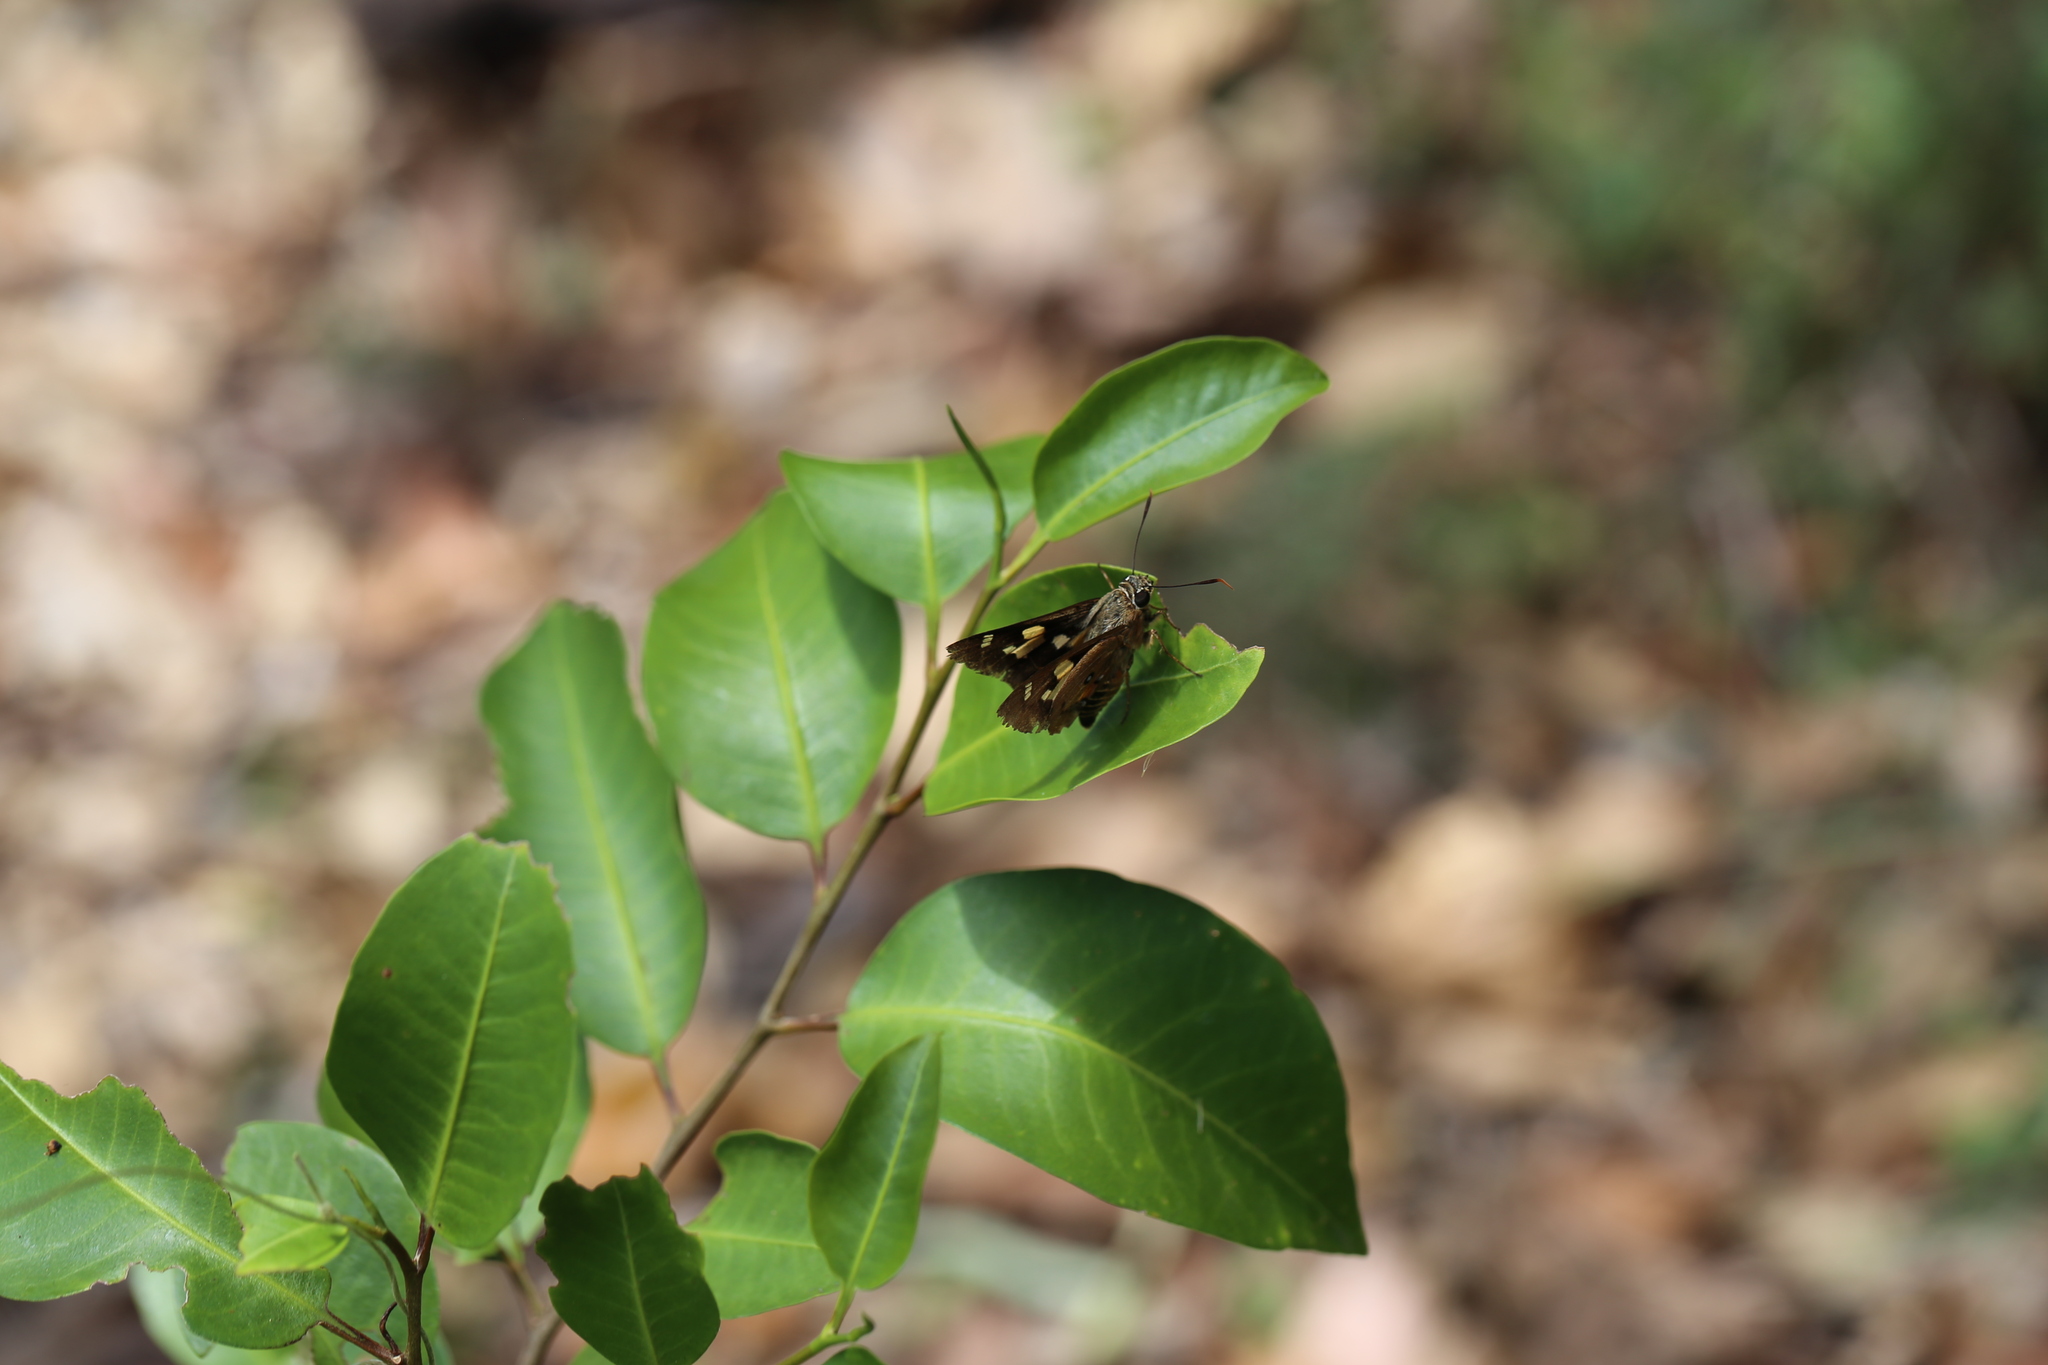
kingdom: Animalia
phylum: Arthropoda
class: Insecta
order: Lepidoptera
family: Hesperiidae
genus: Trapezites
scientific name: Trapezites symmomus
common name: Splendid ochre
